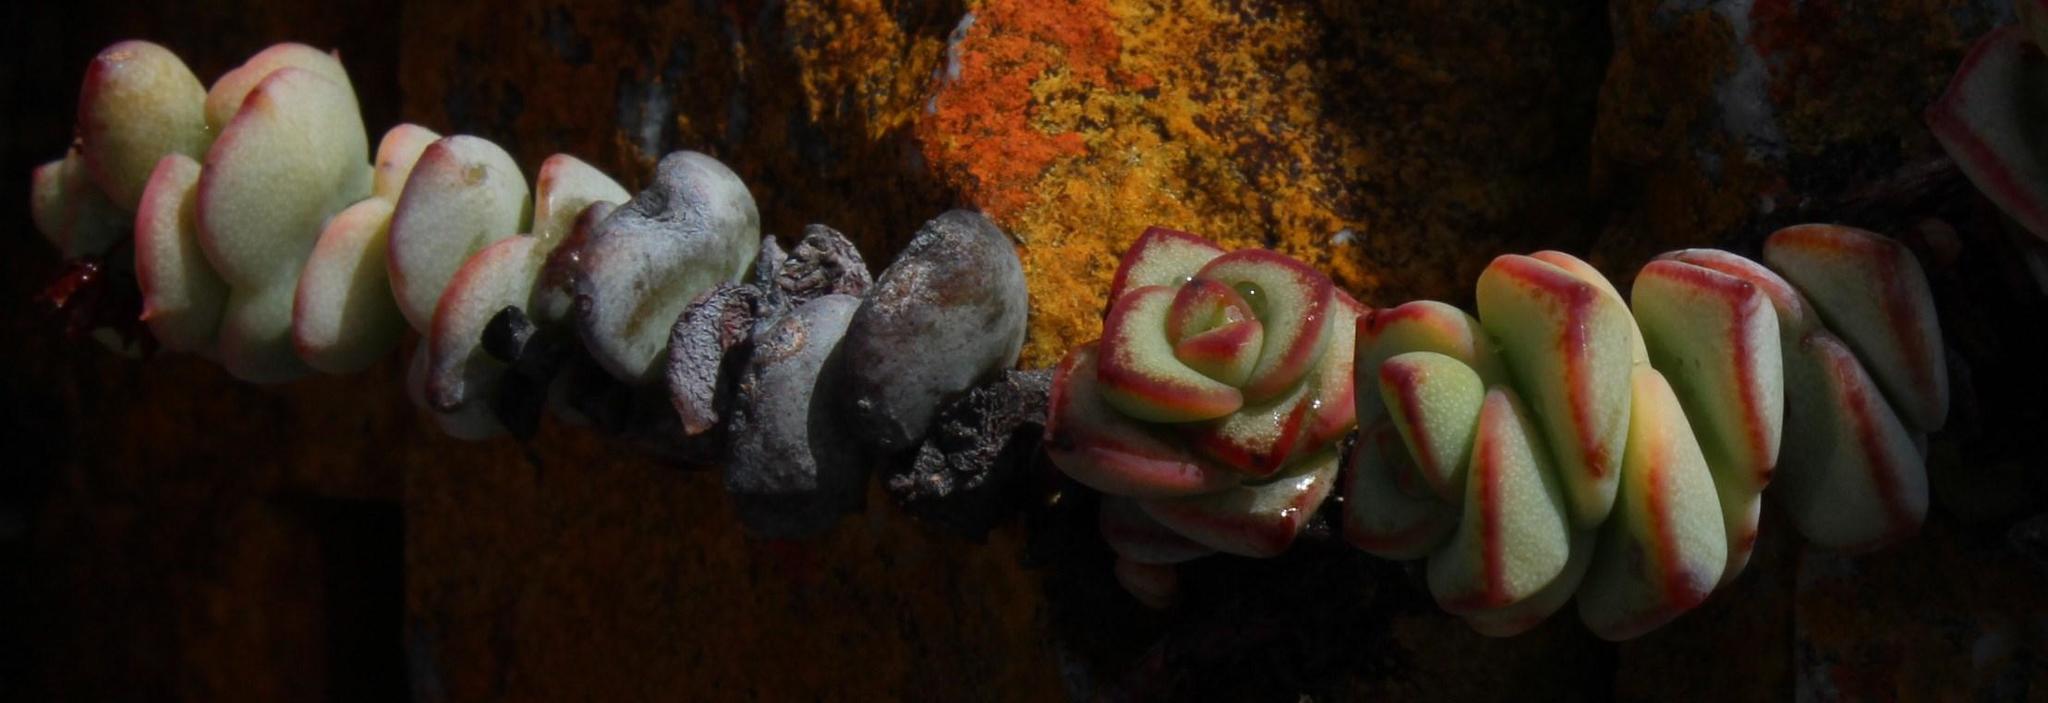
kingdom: Plantae
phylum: Tracheophyta
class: Magnoliopsida
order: Saxifragales
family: Crassulaceae
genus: Crassula
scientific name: Crassula rupestris
